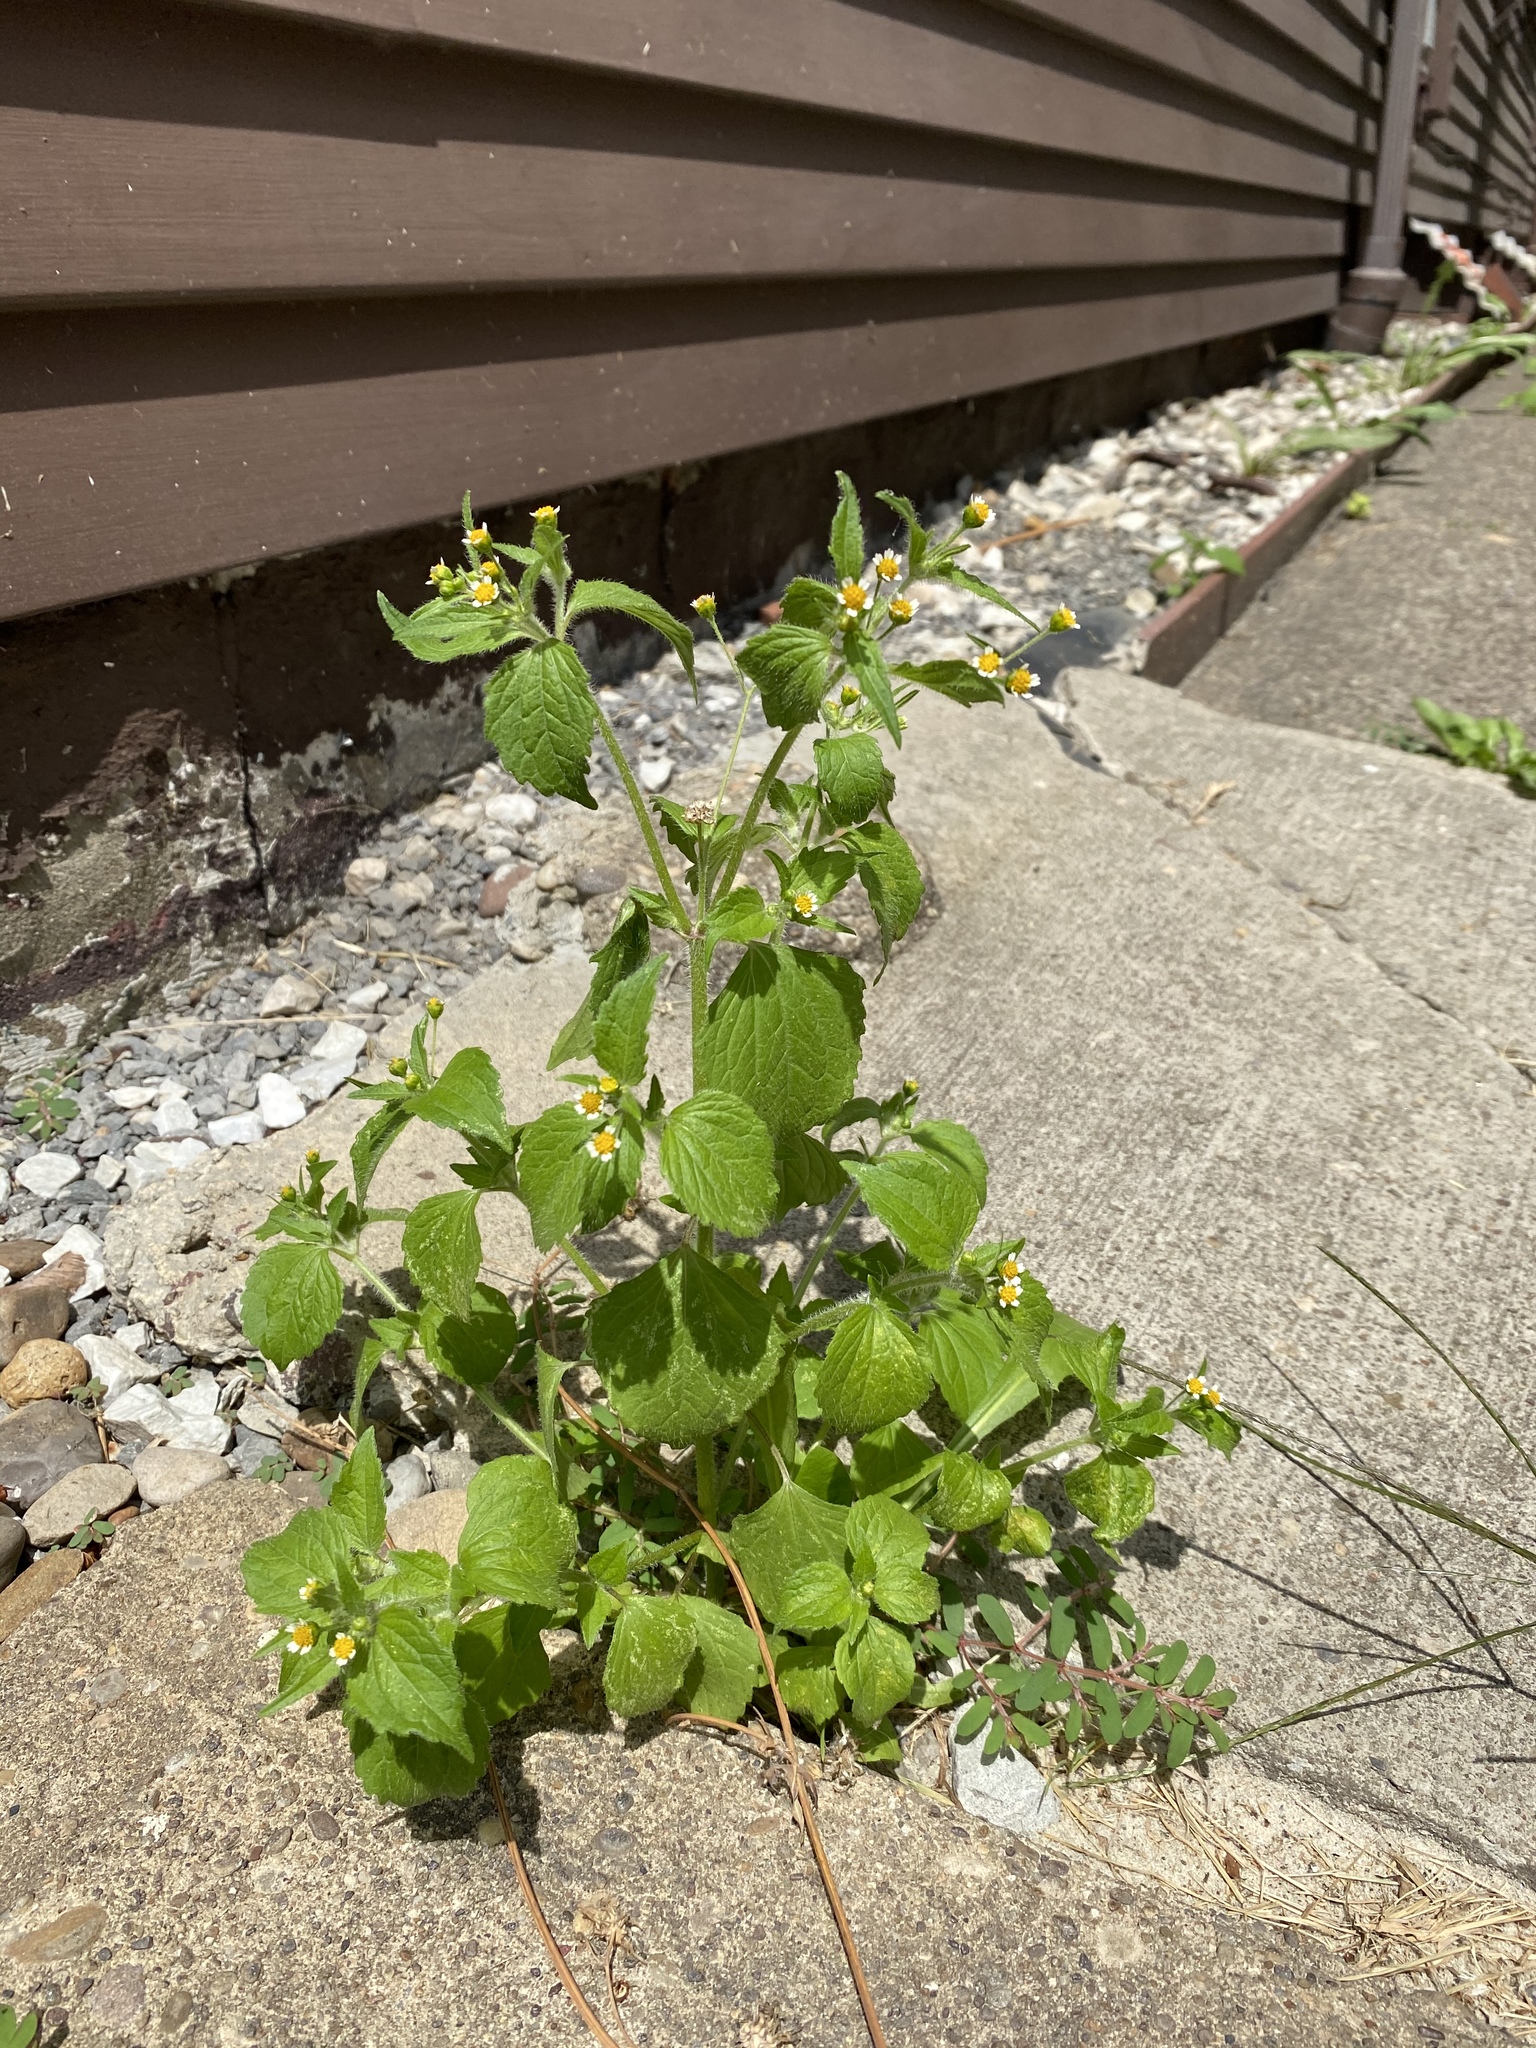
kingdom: Plantae
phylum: Tracheophyta
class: Magnoliopsida
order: Asterales
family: Asteraceae
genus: Galinsoga
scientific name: Galinsoga quadriradiata
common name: Shaggy soldier
